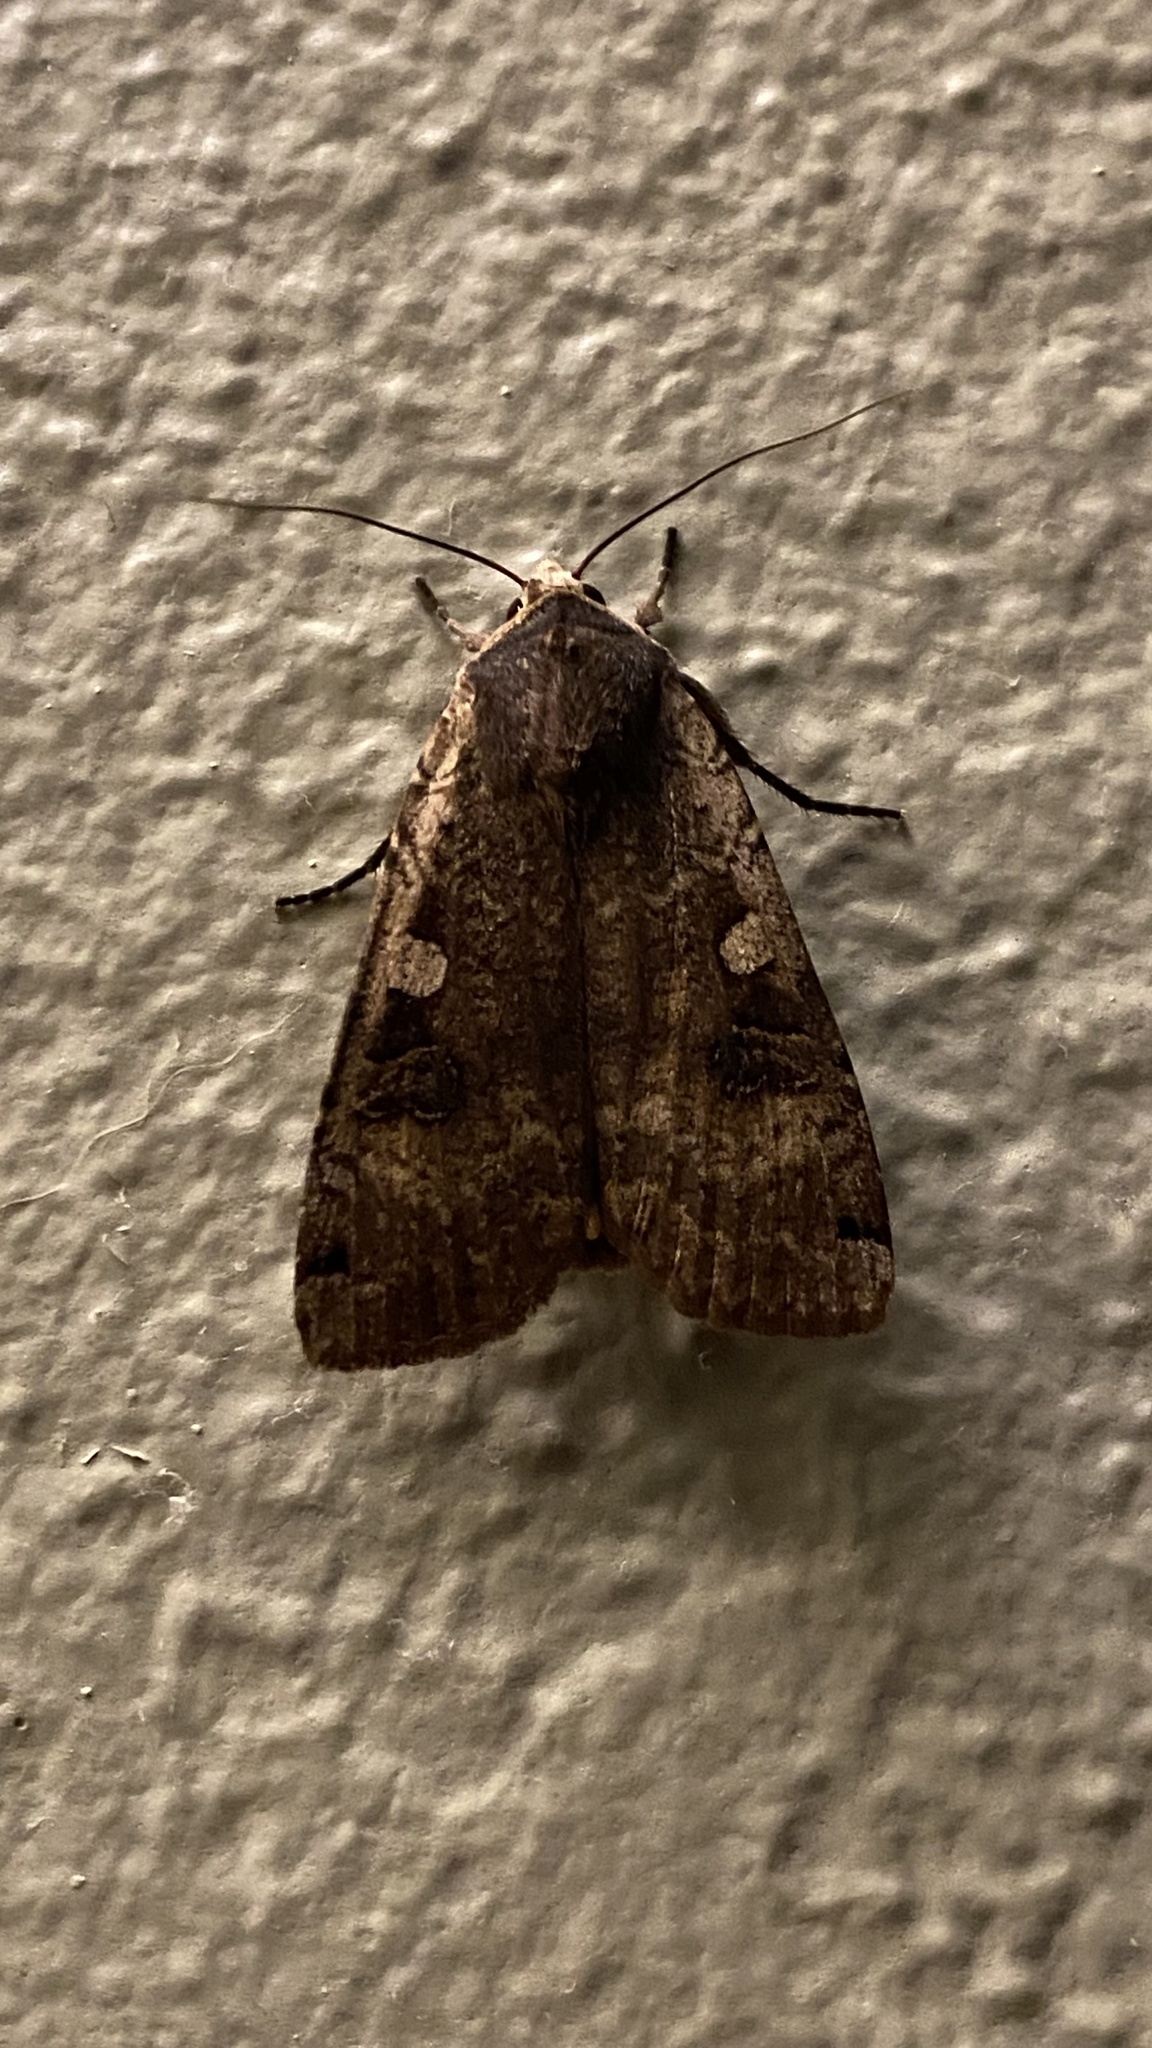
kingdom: Animalia
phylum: Arthropoda
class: Insecta
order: Lepidoptera
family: Noctuidae
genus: Noctua
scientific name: Noctua pronuba
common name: Large yellow underwing
